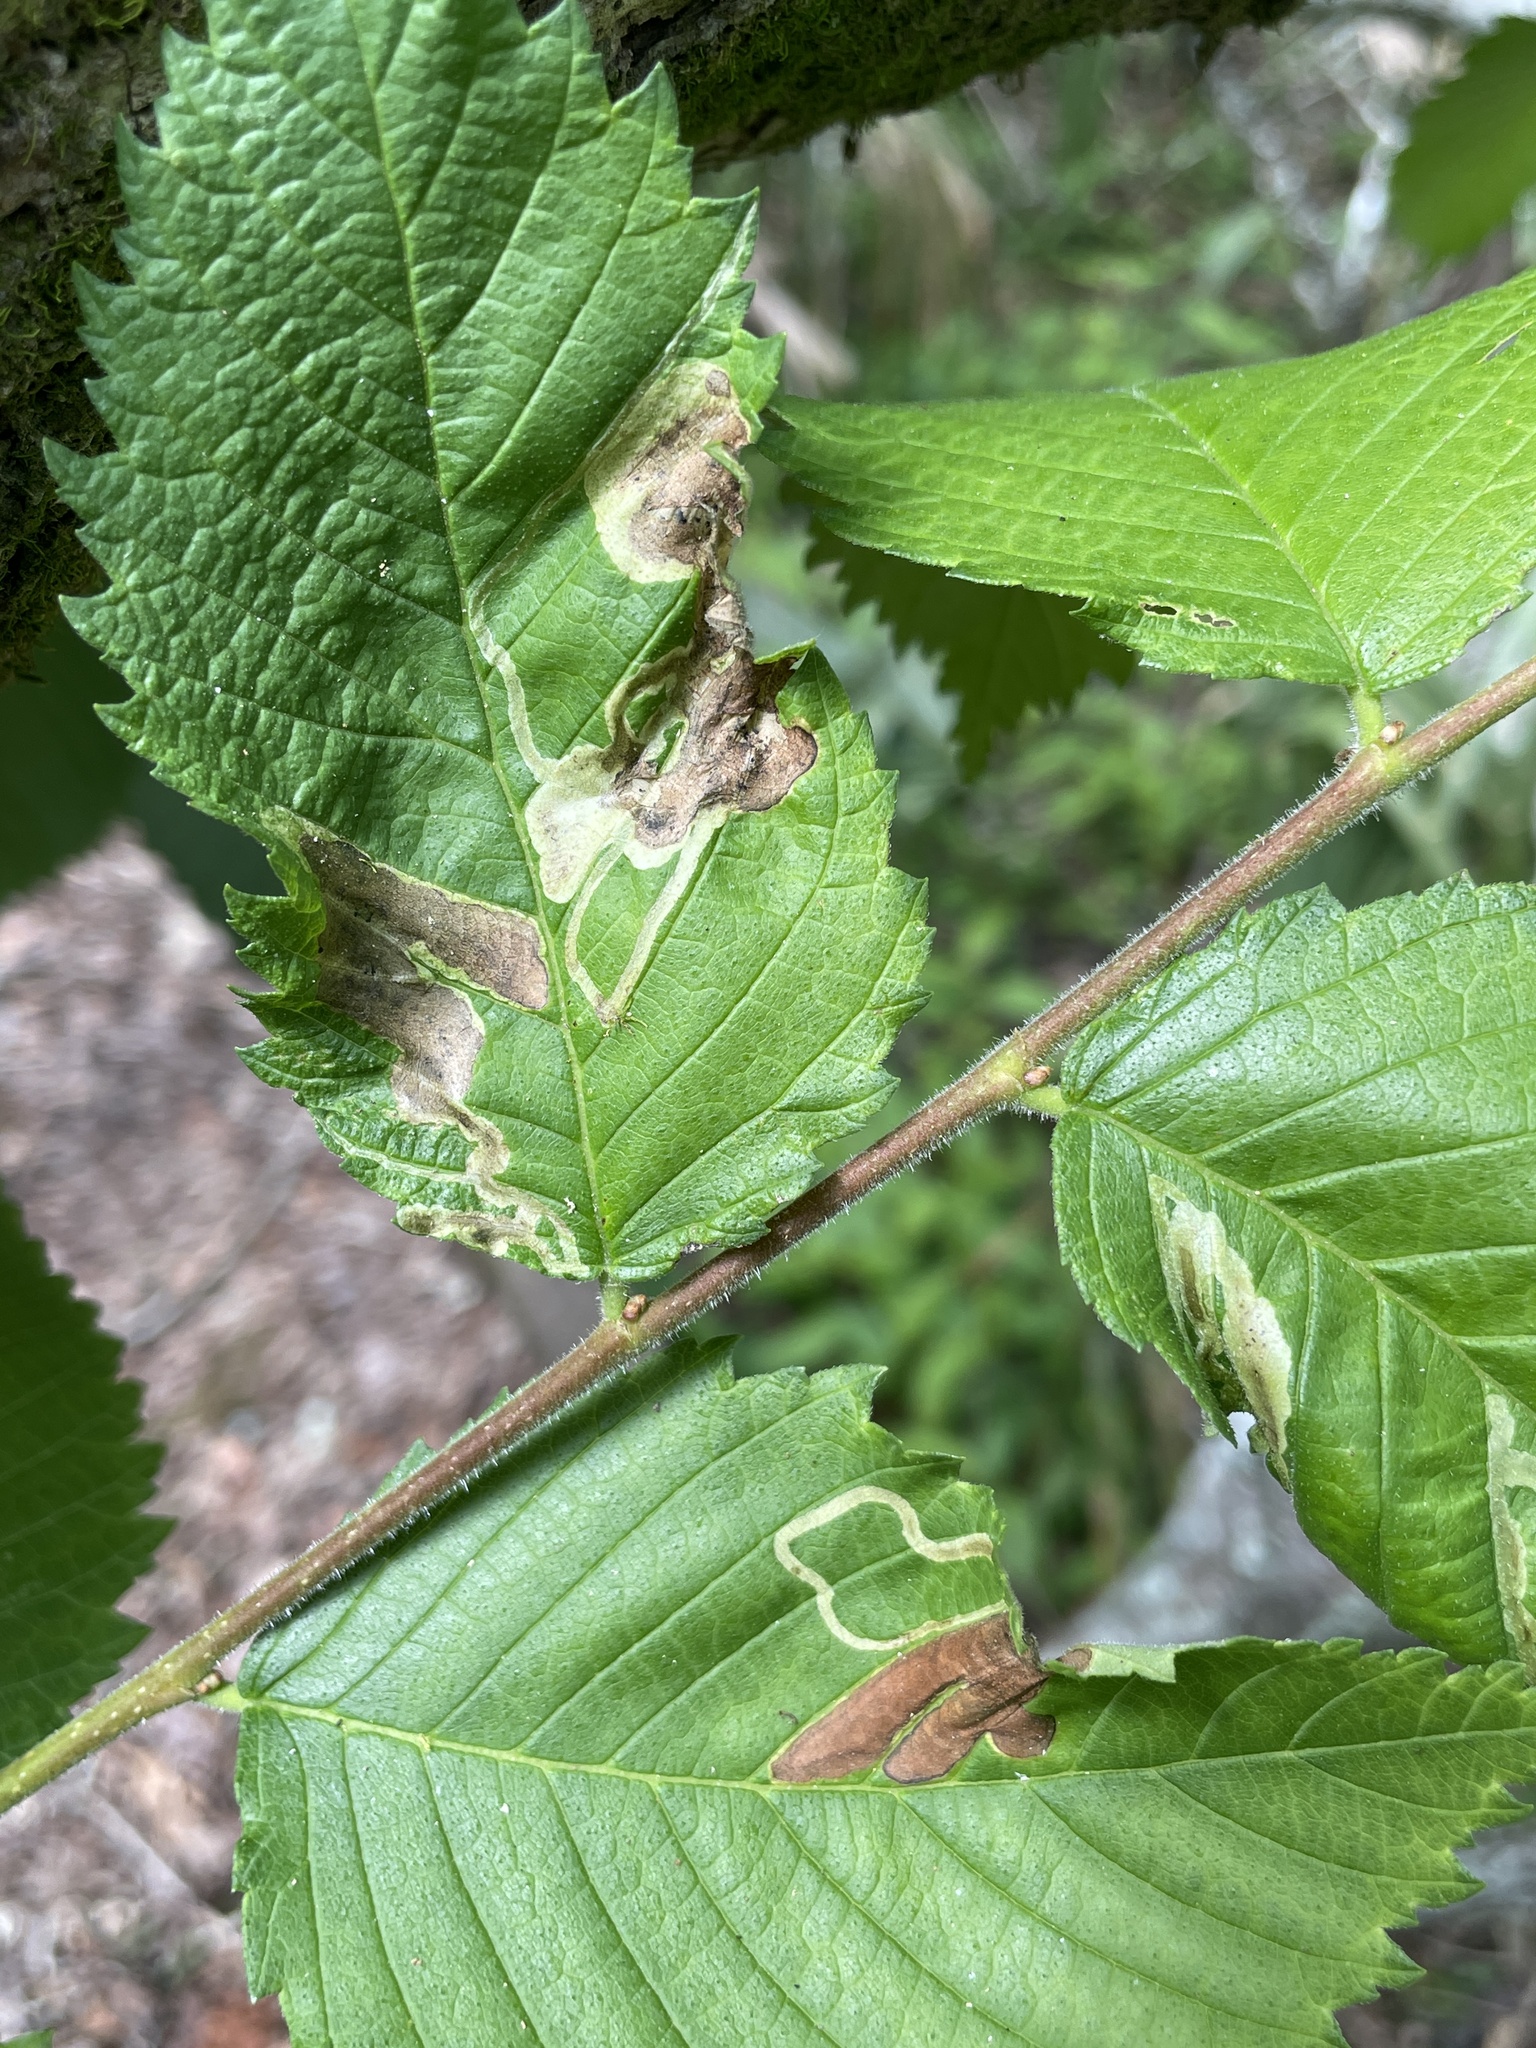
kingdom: Animalia
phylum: Arthropoda
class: Insecta
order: Diptera
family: Agromyzidae
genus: Agromyza
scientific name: Agromyza aristata
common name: Elm agromyzid leafminer
